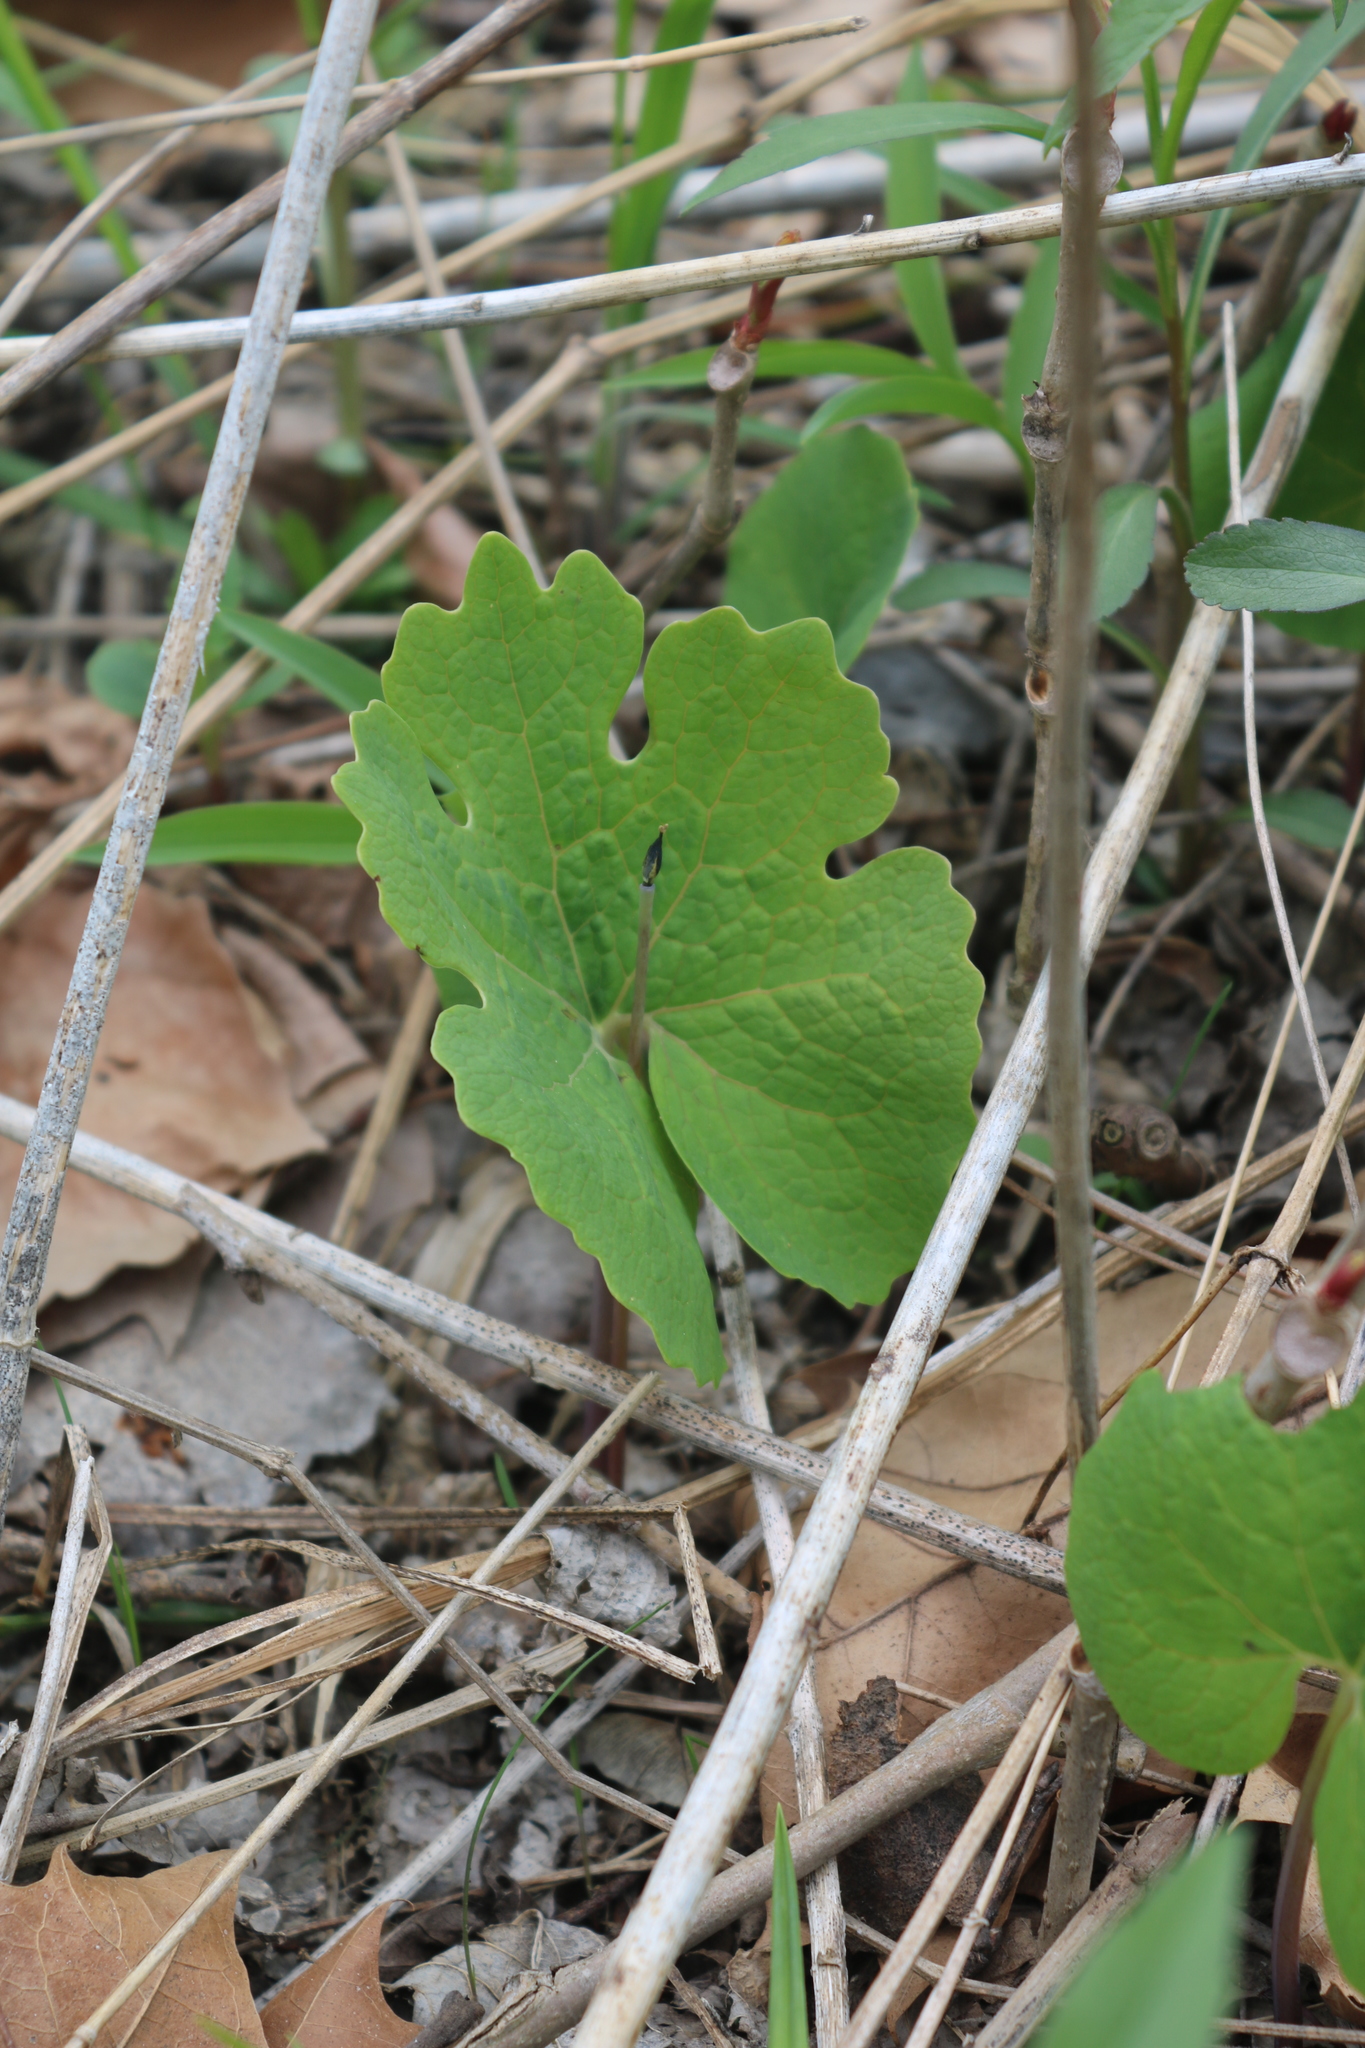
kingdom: Plantae
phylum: Tracheophyta
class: Magnoliopsida
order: Ranunculales
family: Papaveraceae
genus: Sanguinaria
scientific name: Sanguinaria canadensis
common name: Bloodroot
